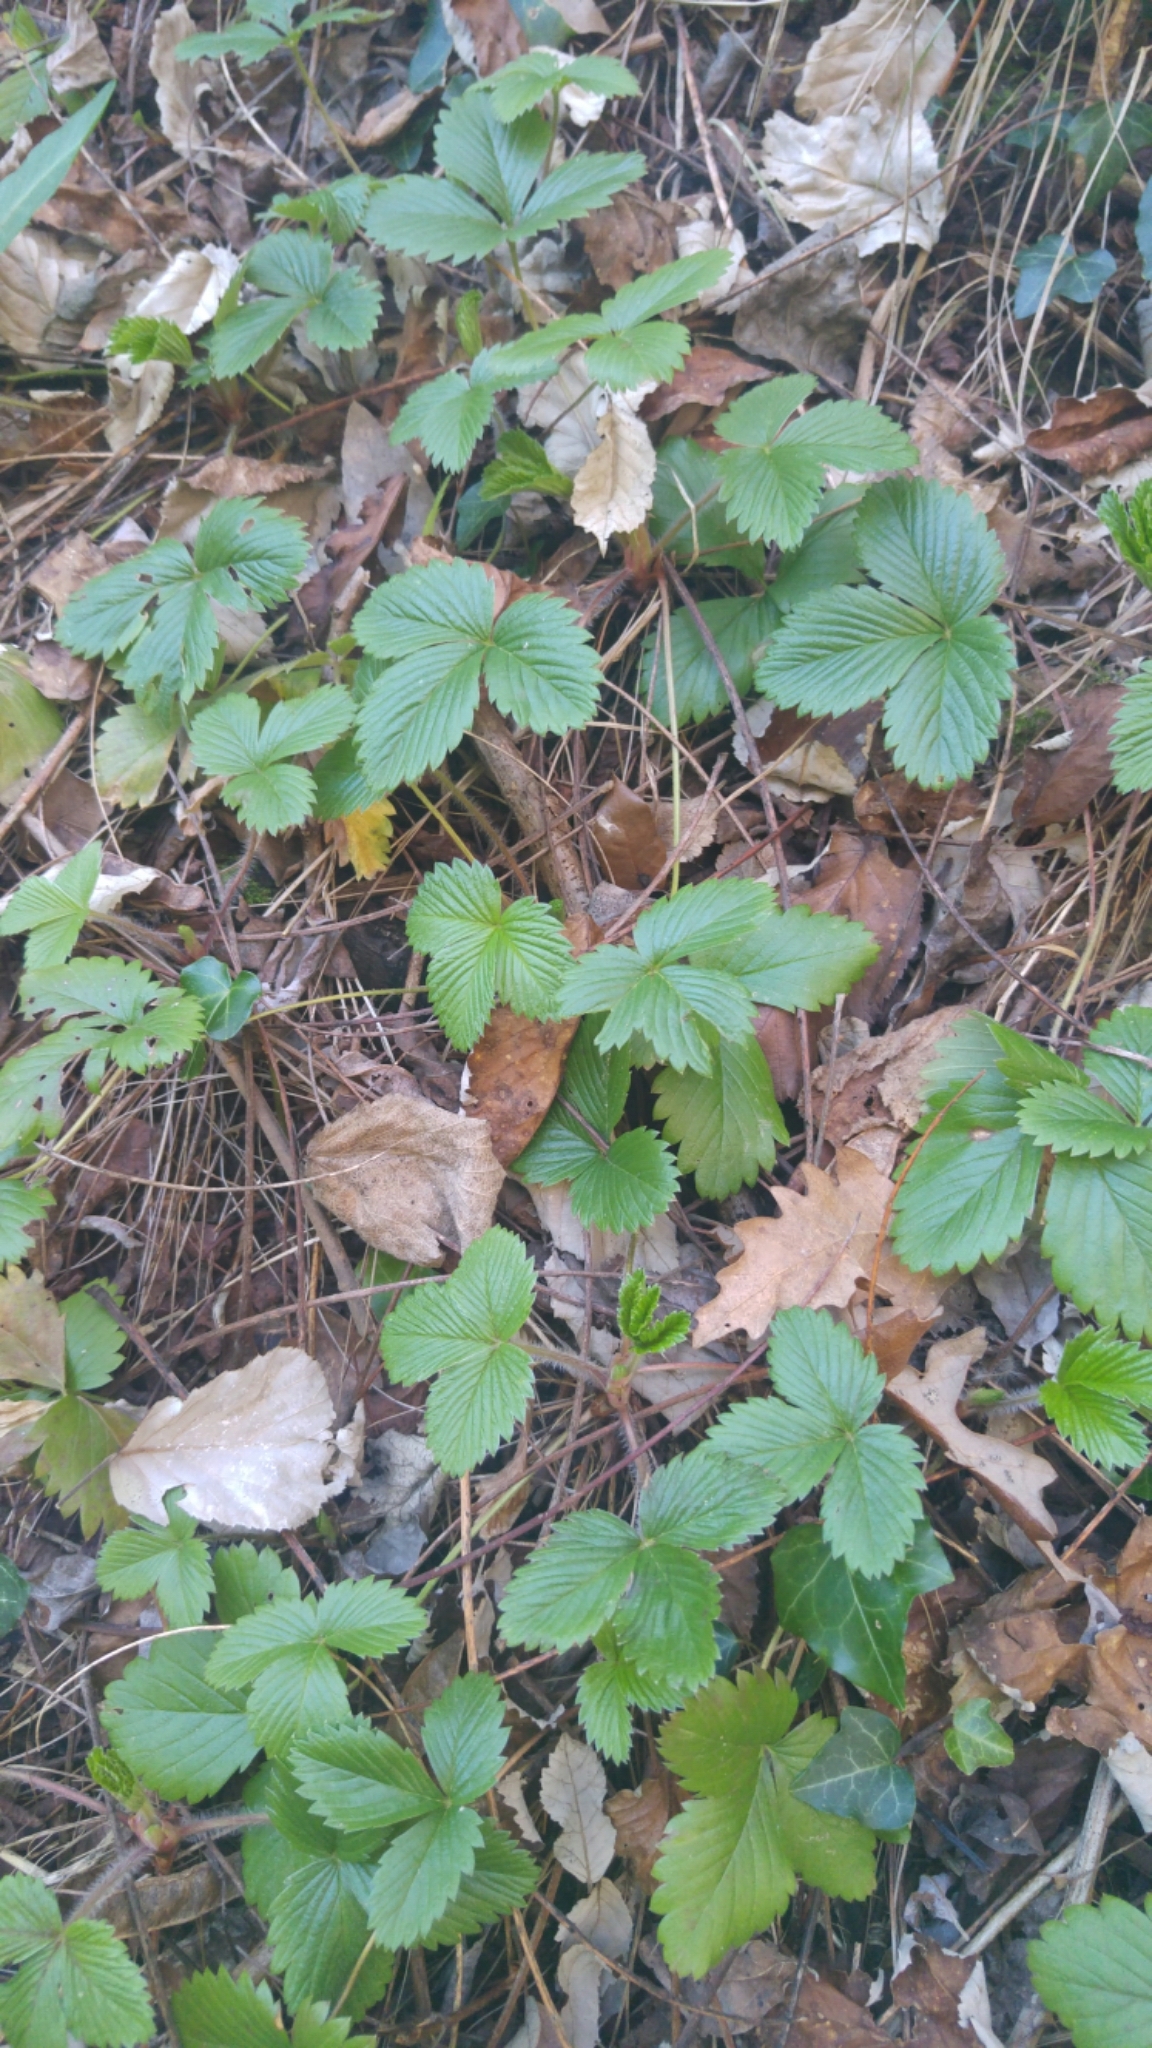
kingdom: Plantae
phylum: Tracheophyta
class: Magnoliopsida
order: Rosales
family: Rosaceae
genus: Fragaria
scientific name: Fragaria vesca
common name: Wild strawberry
